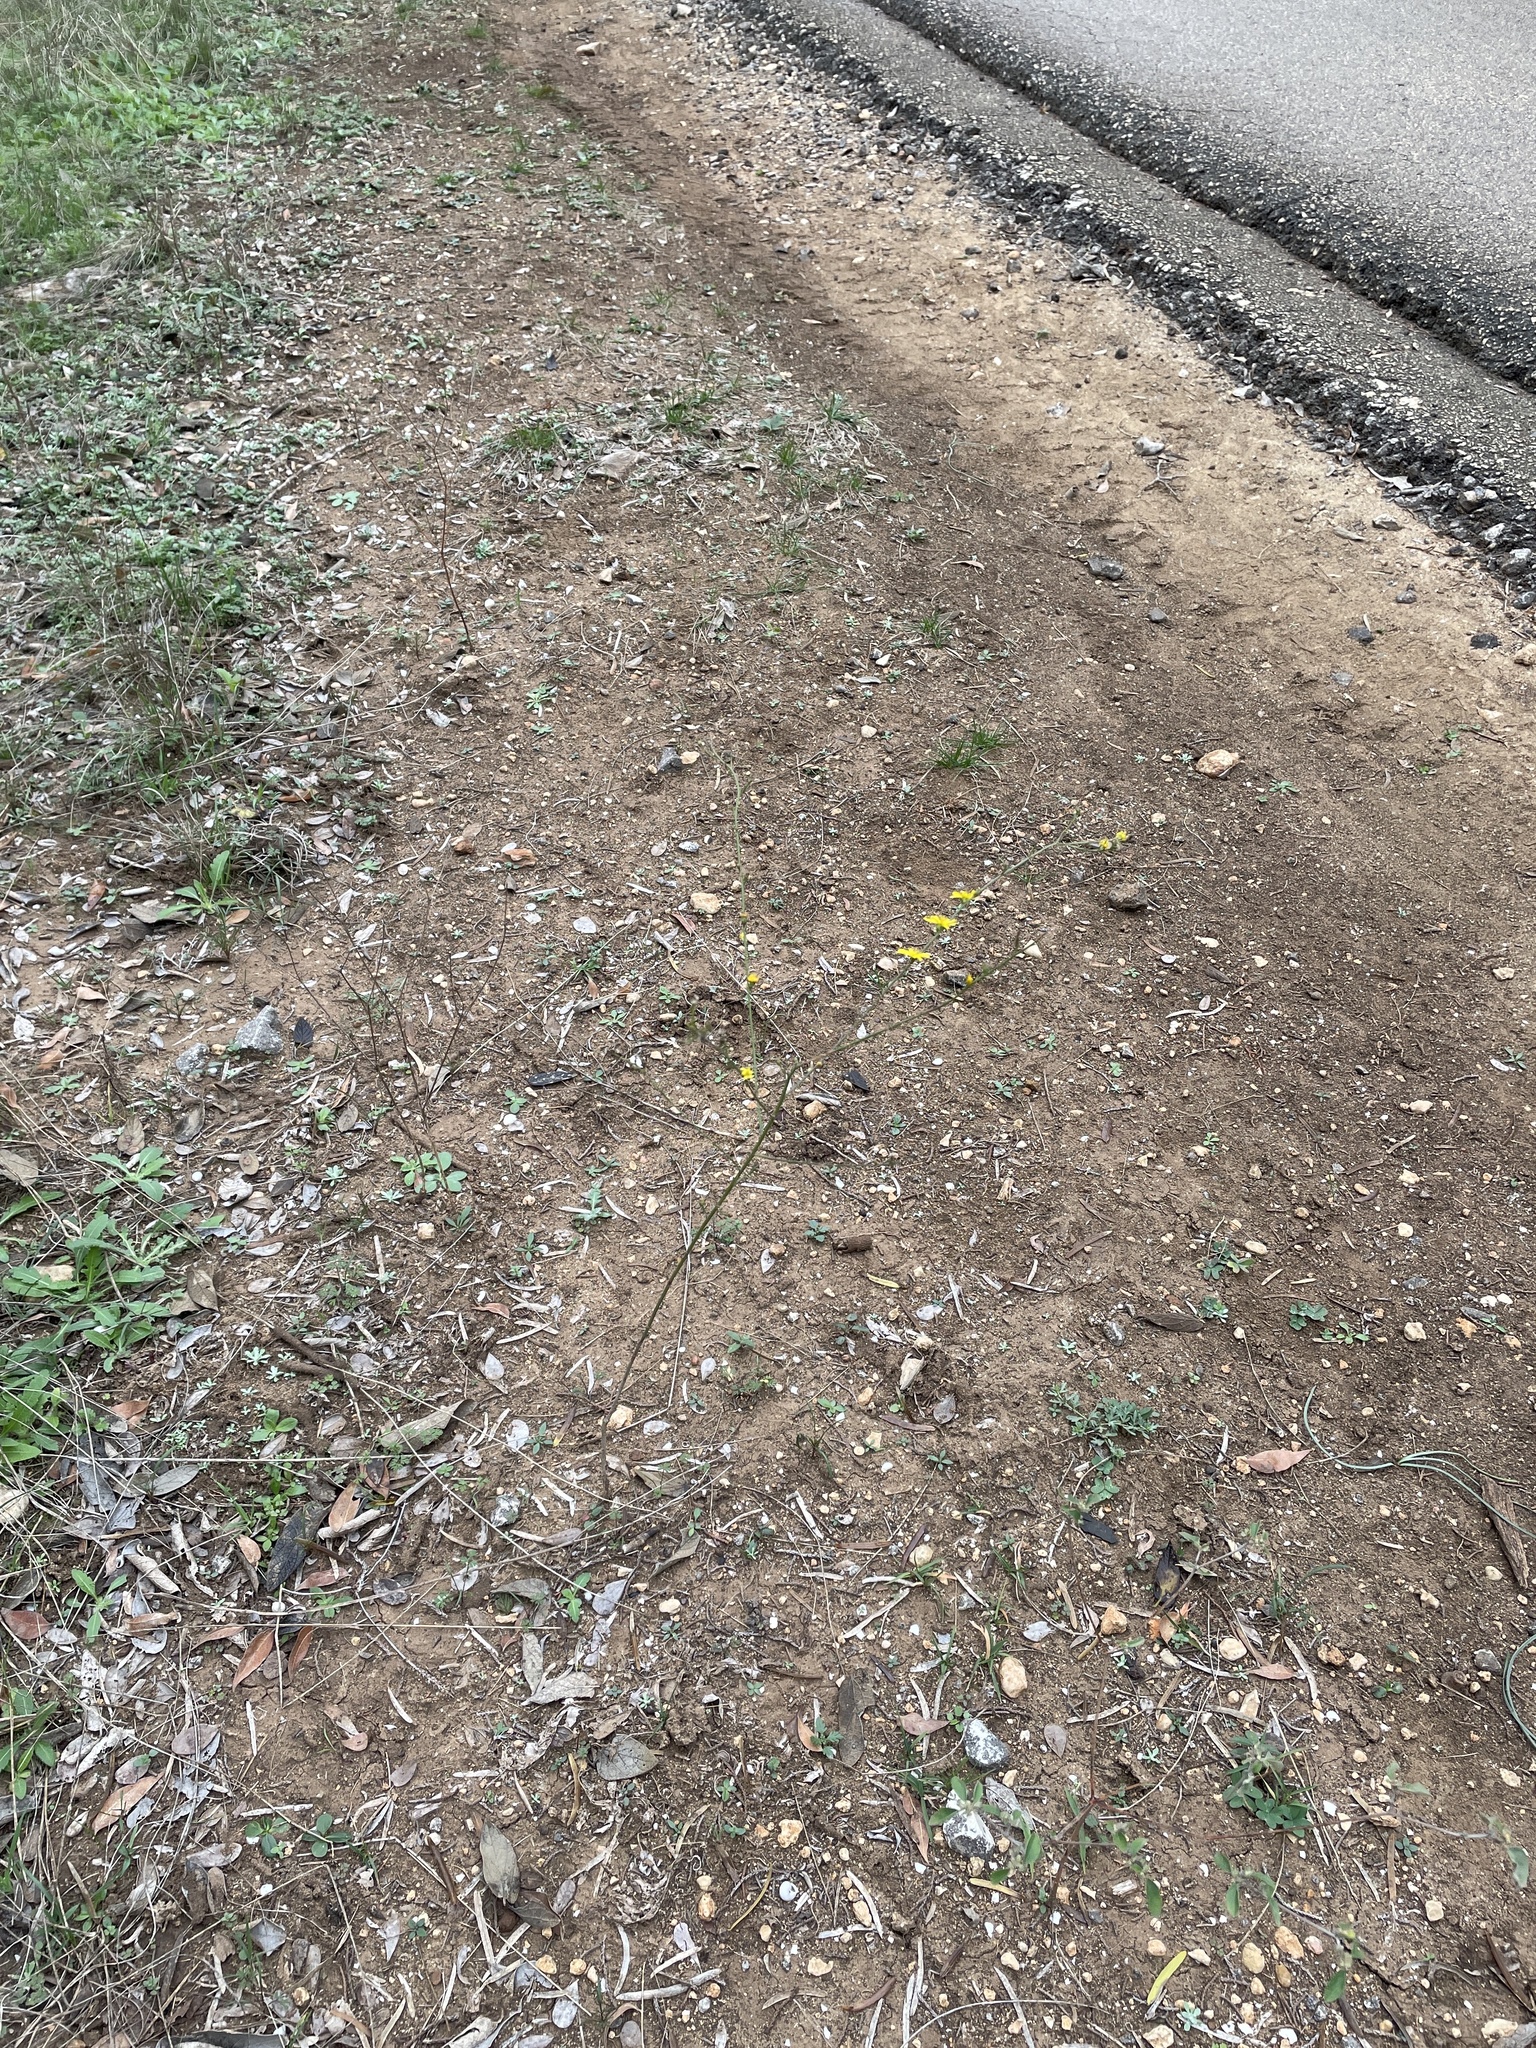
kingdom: Plantae
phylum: Tracheophyta
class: Magnoliopsida
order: Asterales
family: Asteraceae
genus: Gutierrezia
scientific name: Gutierrezia texana
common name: Texas snakeweed
